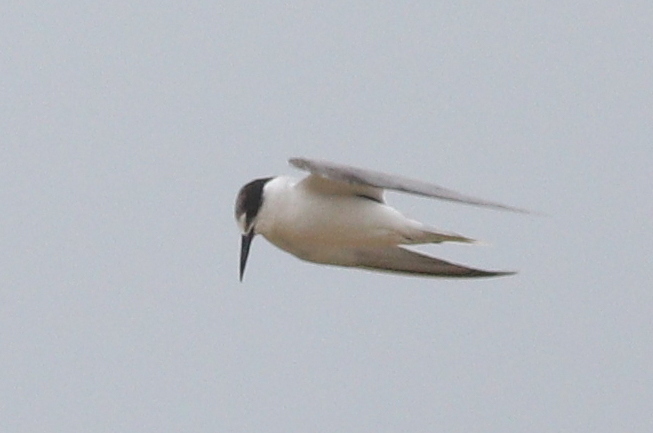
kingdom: Animalia
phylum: Chordata
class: Aves
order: Charadriiformes
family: Laridae
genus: Sternula
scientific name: Sternula albifrons
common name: Little tern
